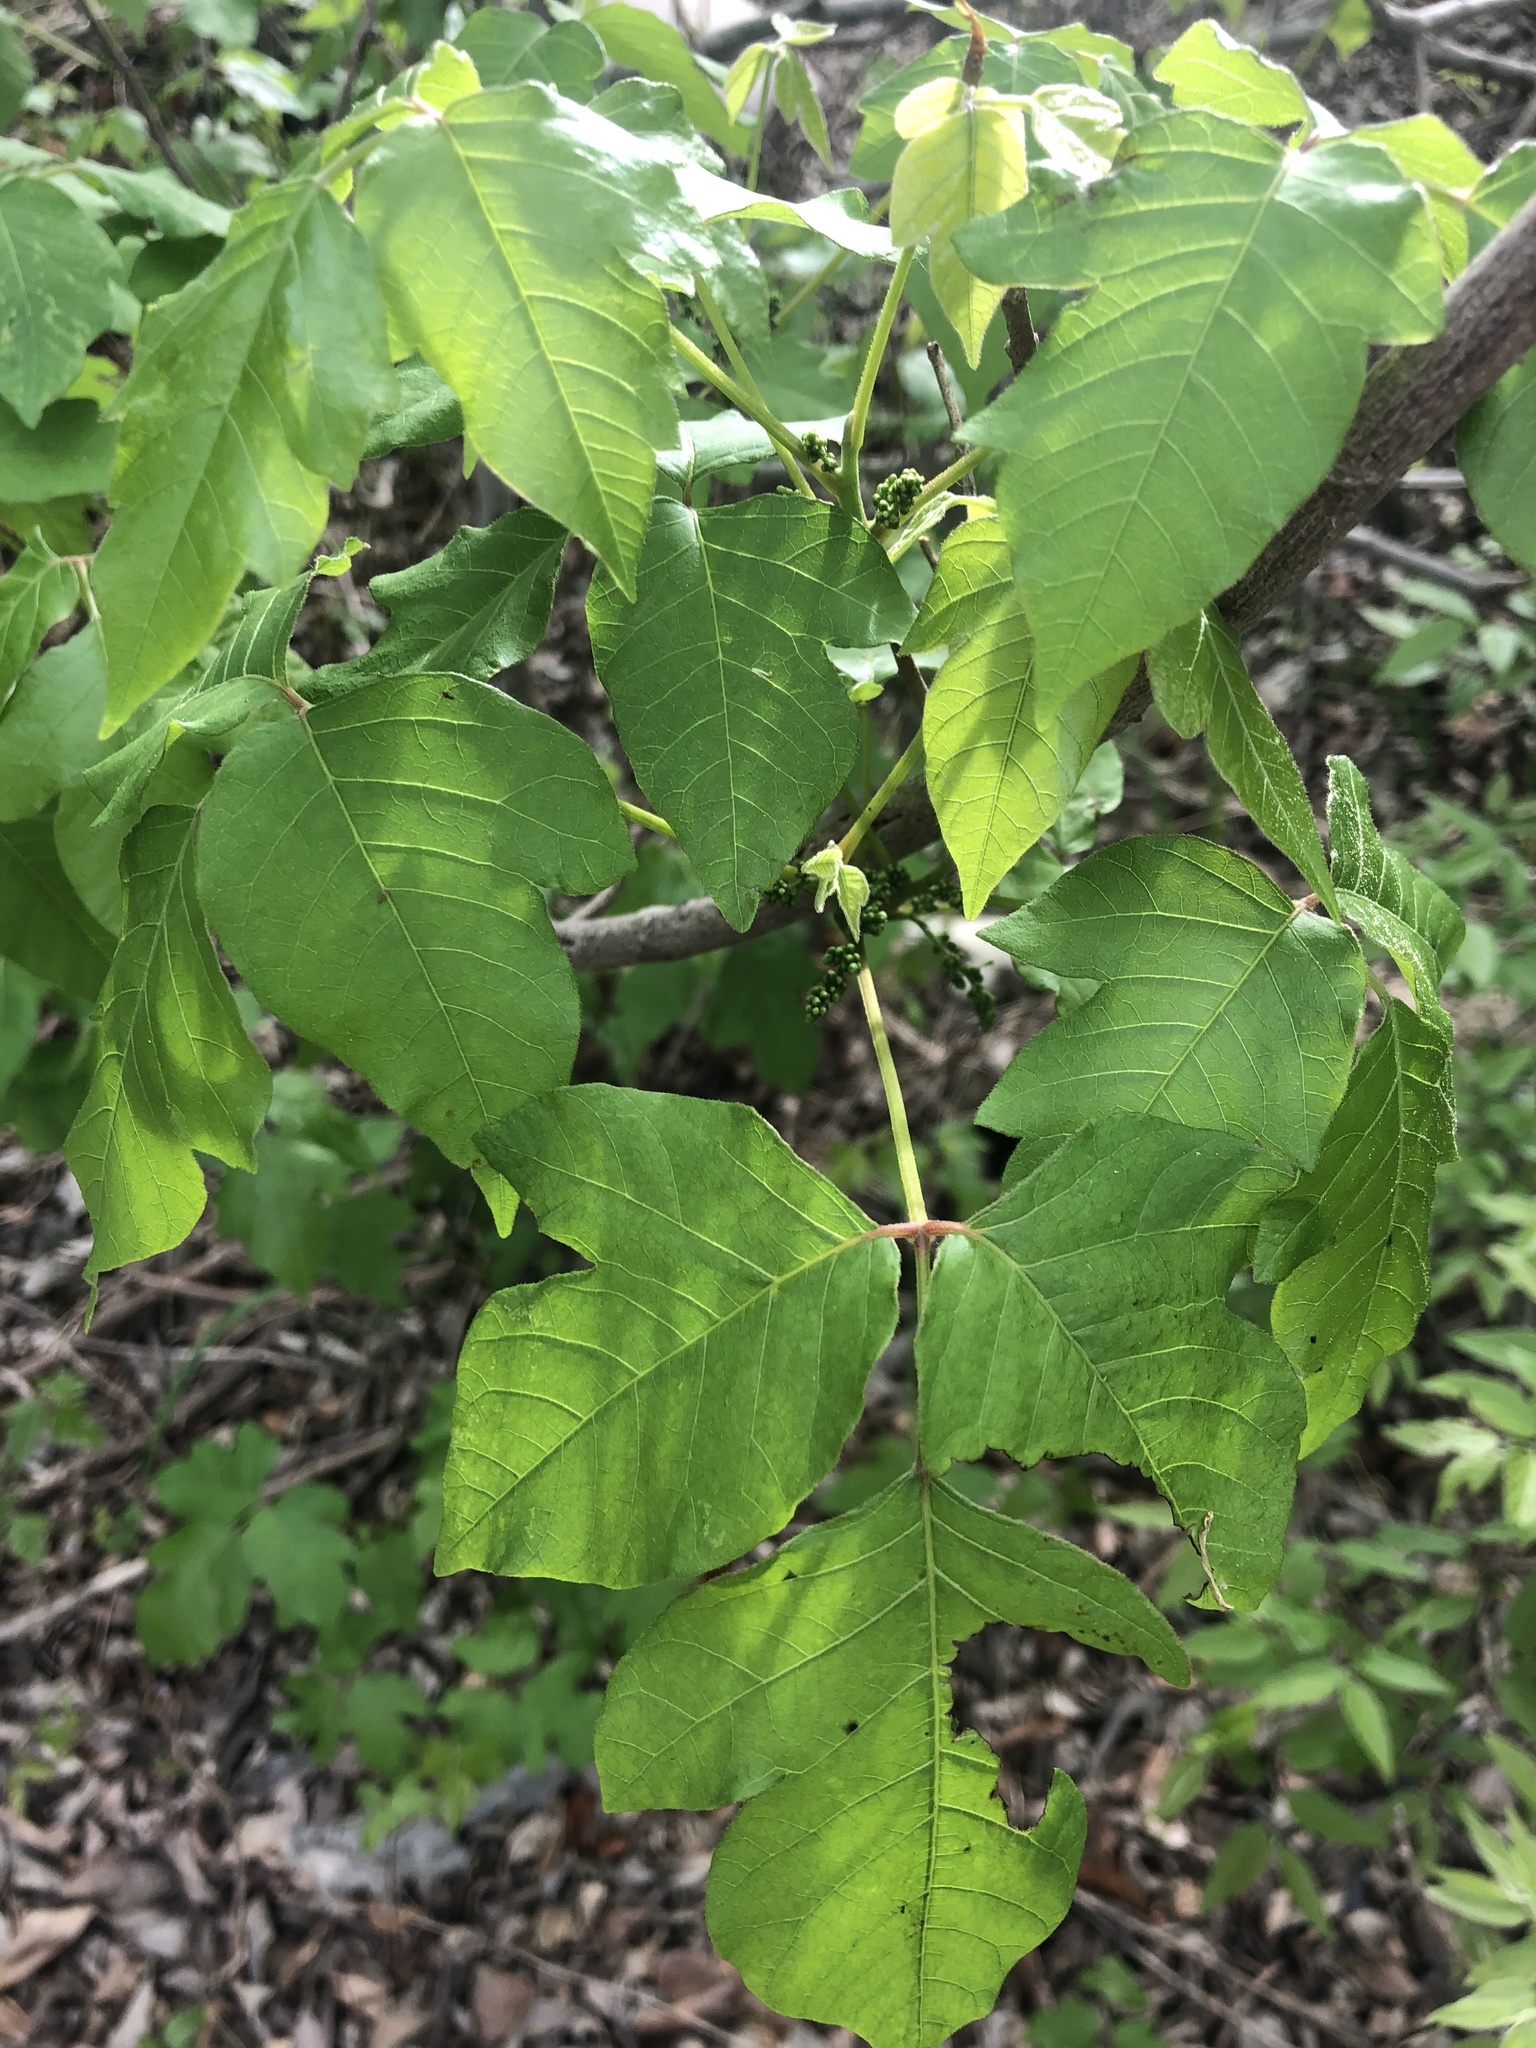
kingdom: Plantae
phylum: Tracheophyta
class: Magnoliopsida
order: Sapindales
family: Anacardiaceae
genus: Toxicodendron
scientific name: Toxicodendron radicans
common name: Poison ivy
